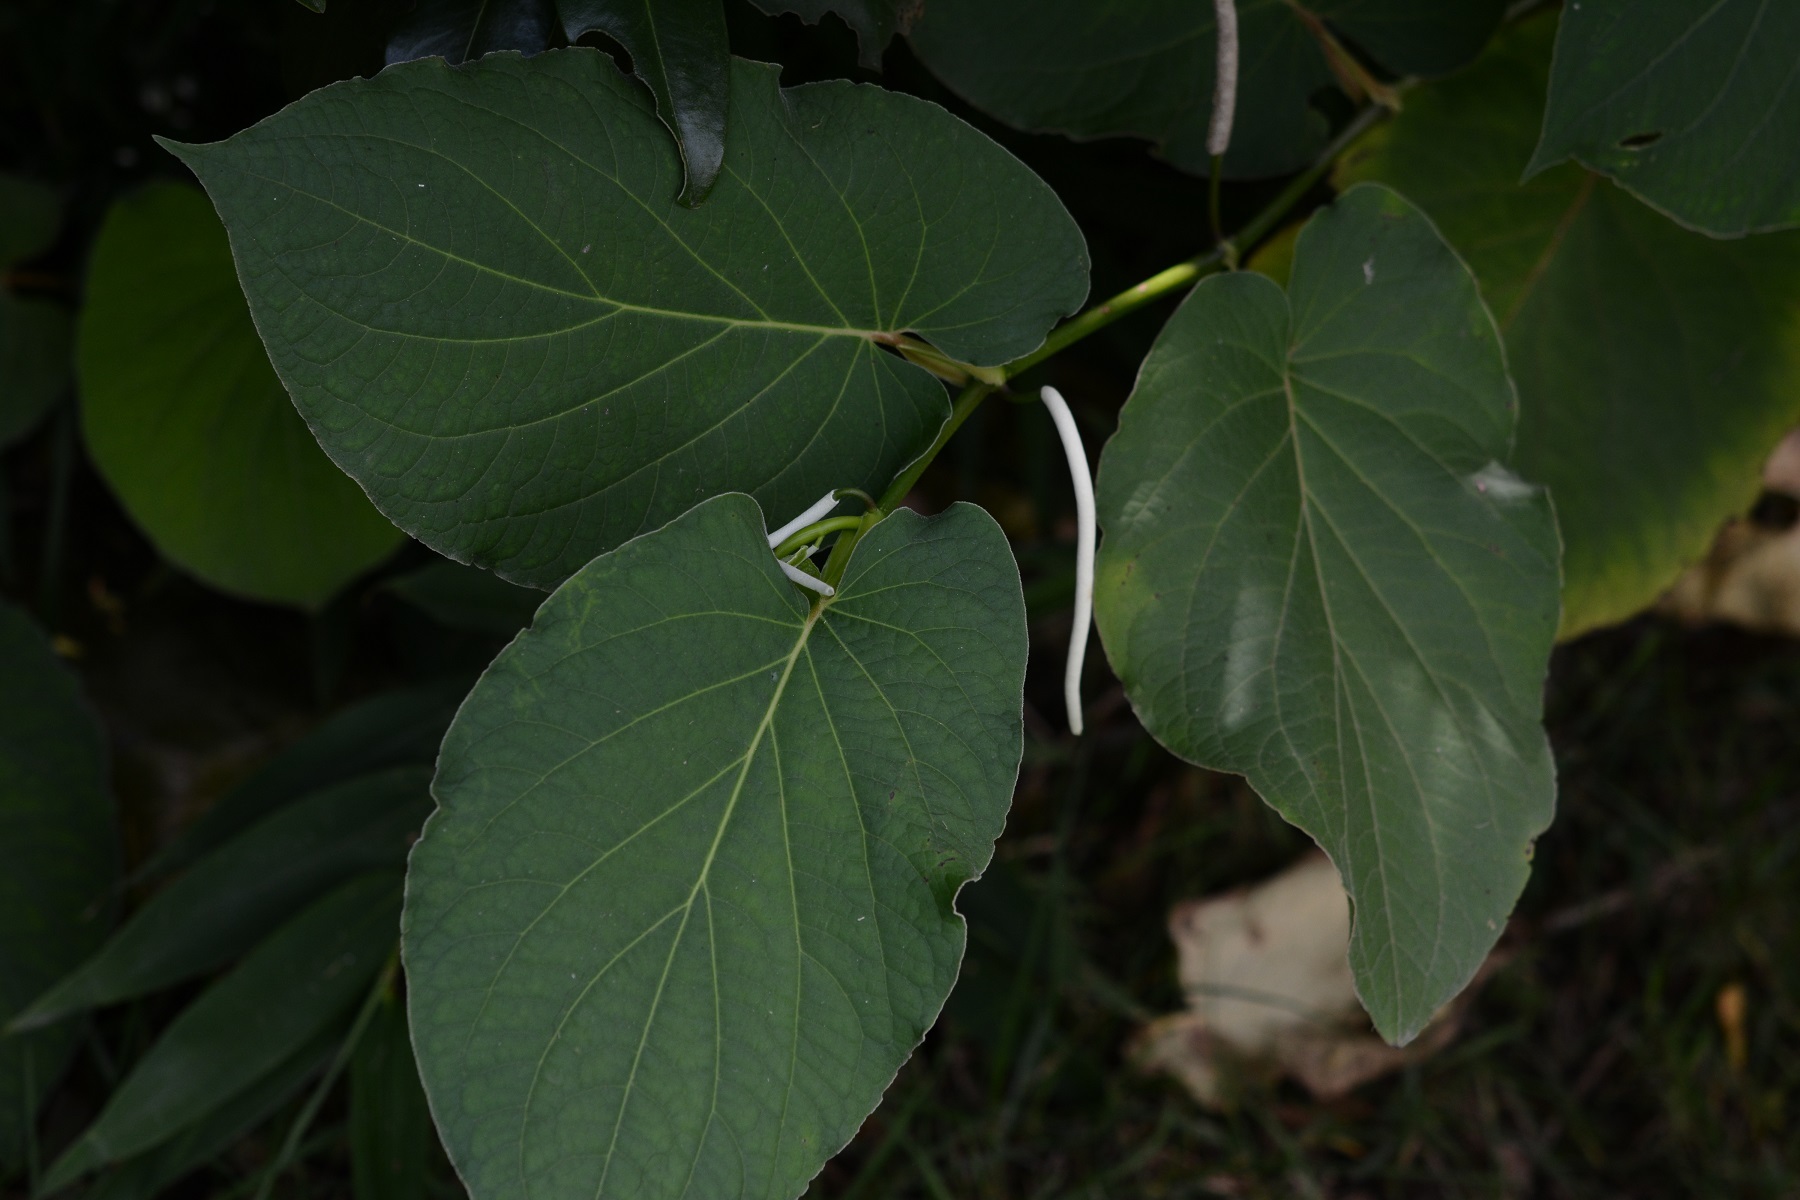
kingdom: Plantae
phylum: Tracheophyta
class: Magnoliopsida
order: Piperales
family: Piperaceae
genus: Piper
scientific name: Piper auritum
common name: Vera cruz pepper
